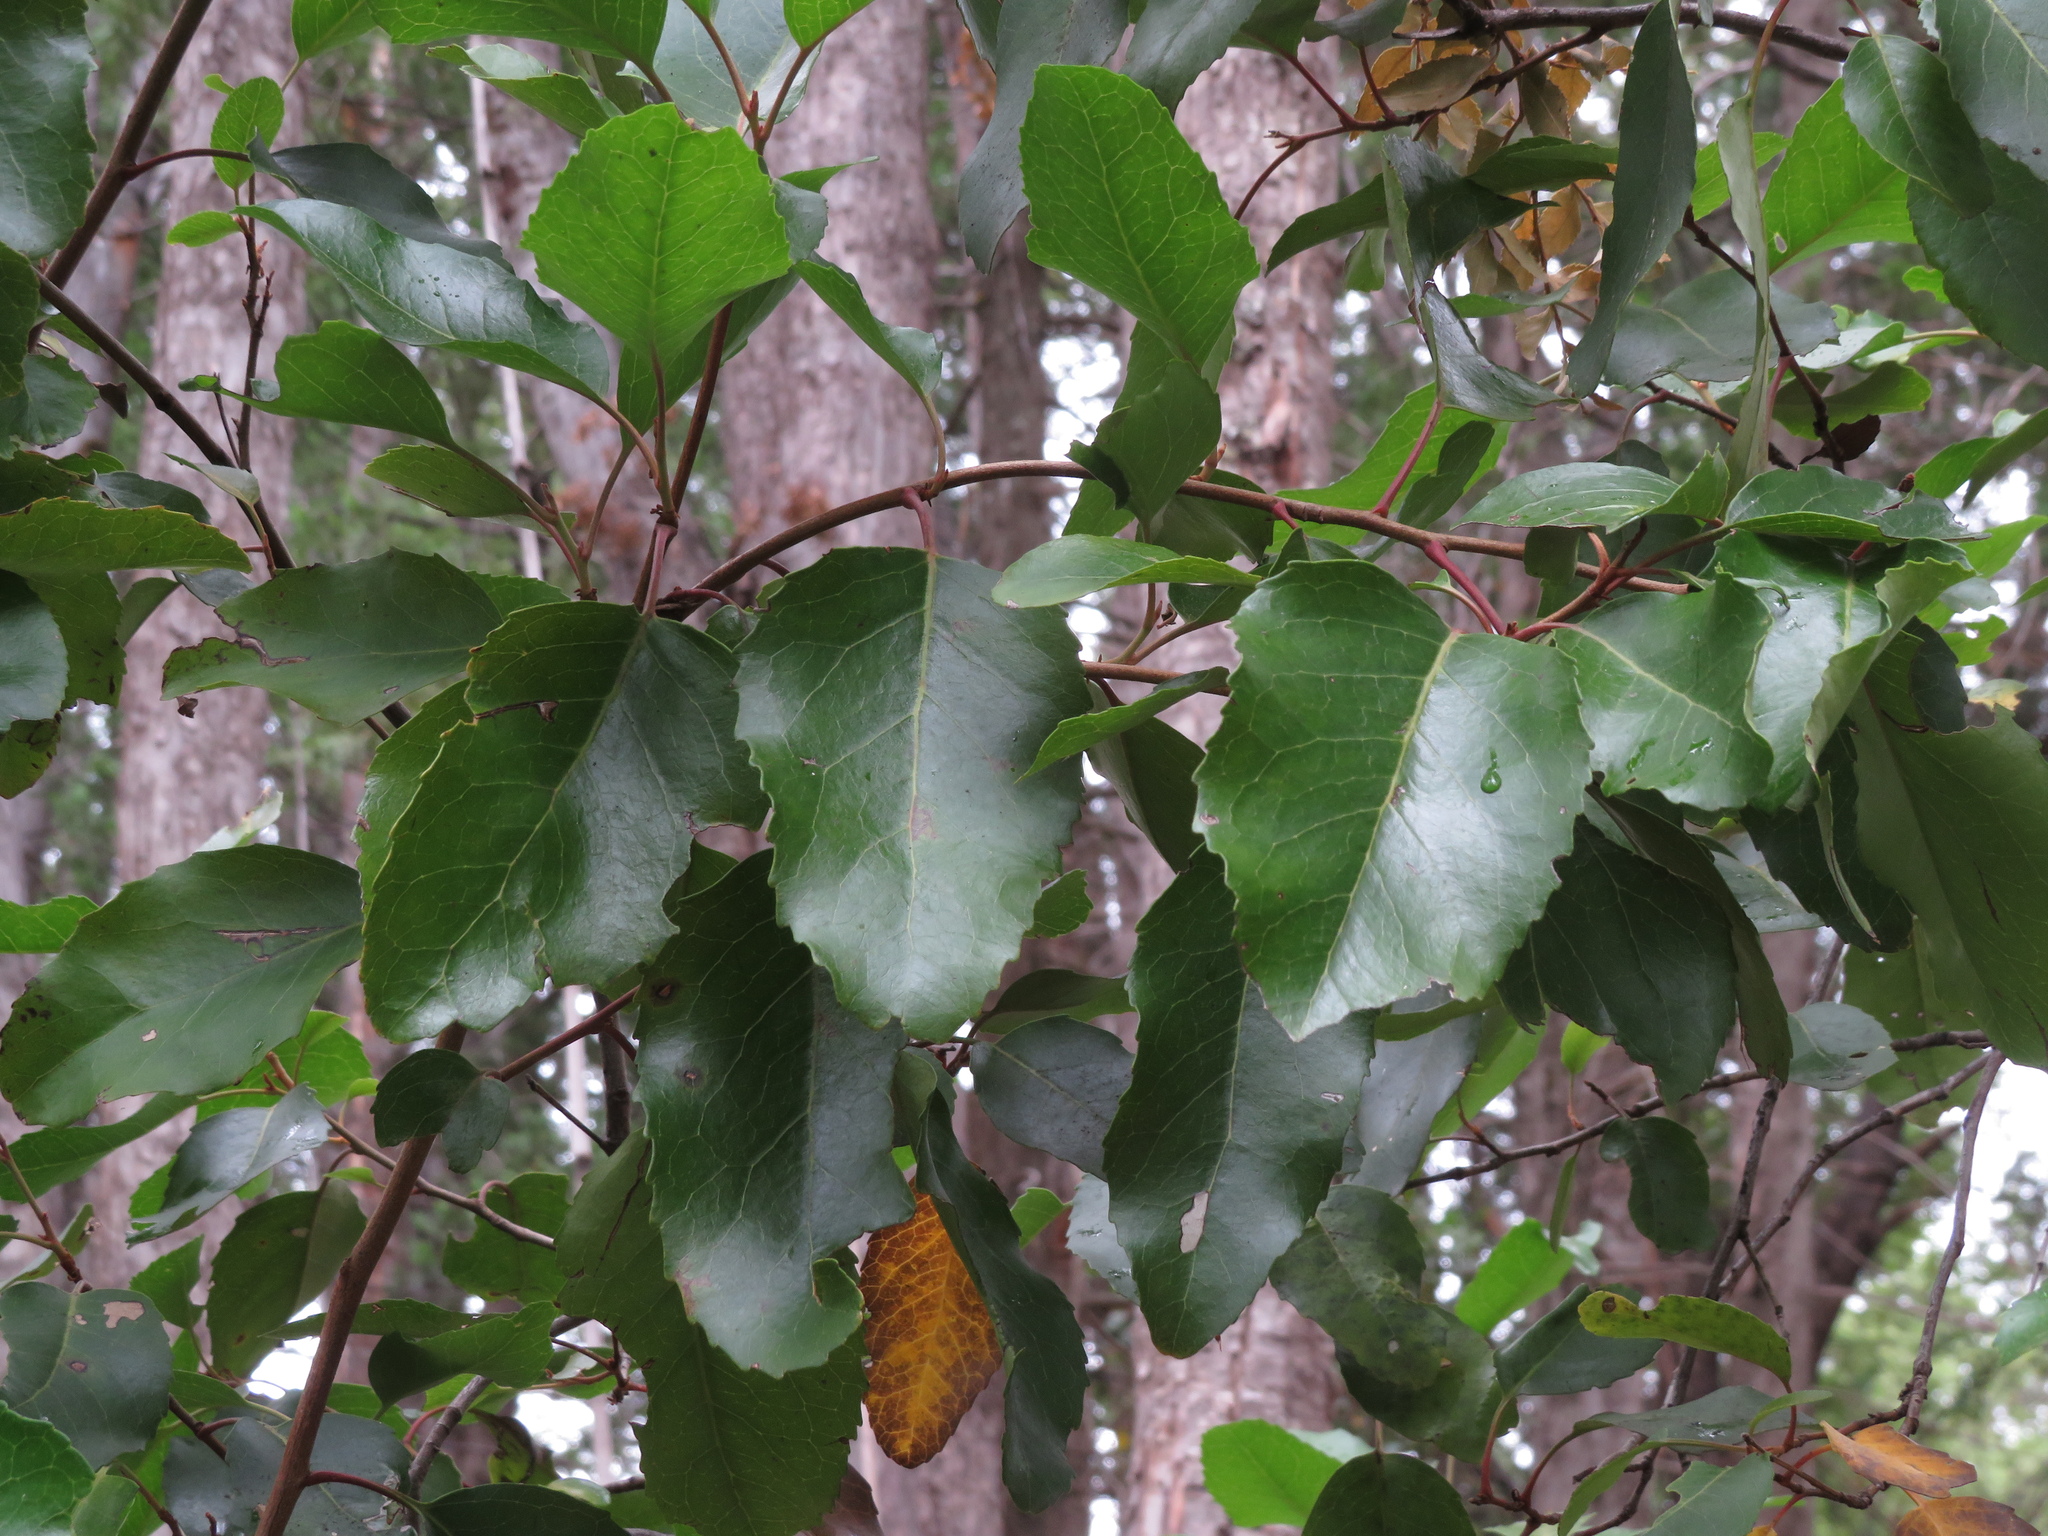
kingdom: Plantae
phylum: Tracheophyta
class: Magnoliopsida
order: Proteales
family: Proteaceae
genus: Lomatia
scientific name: Lomatia hirsuta
